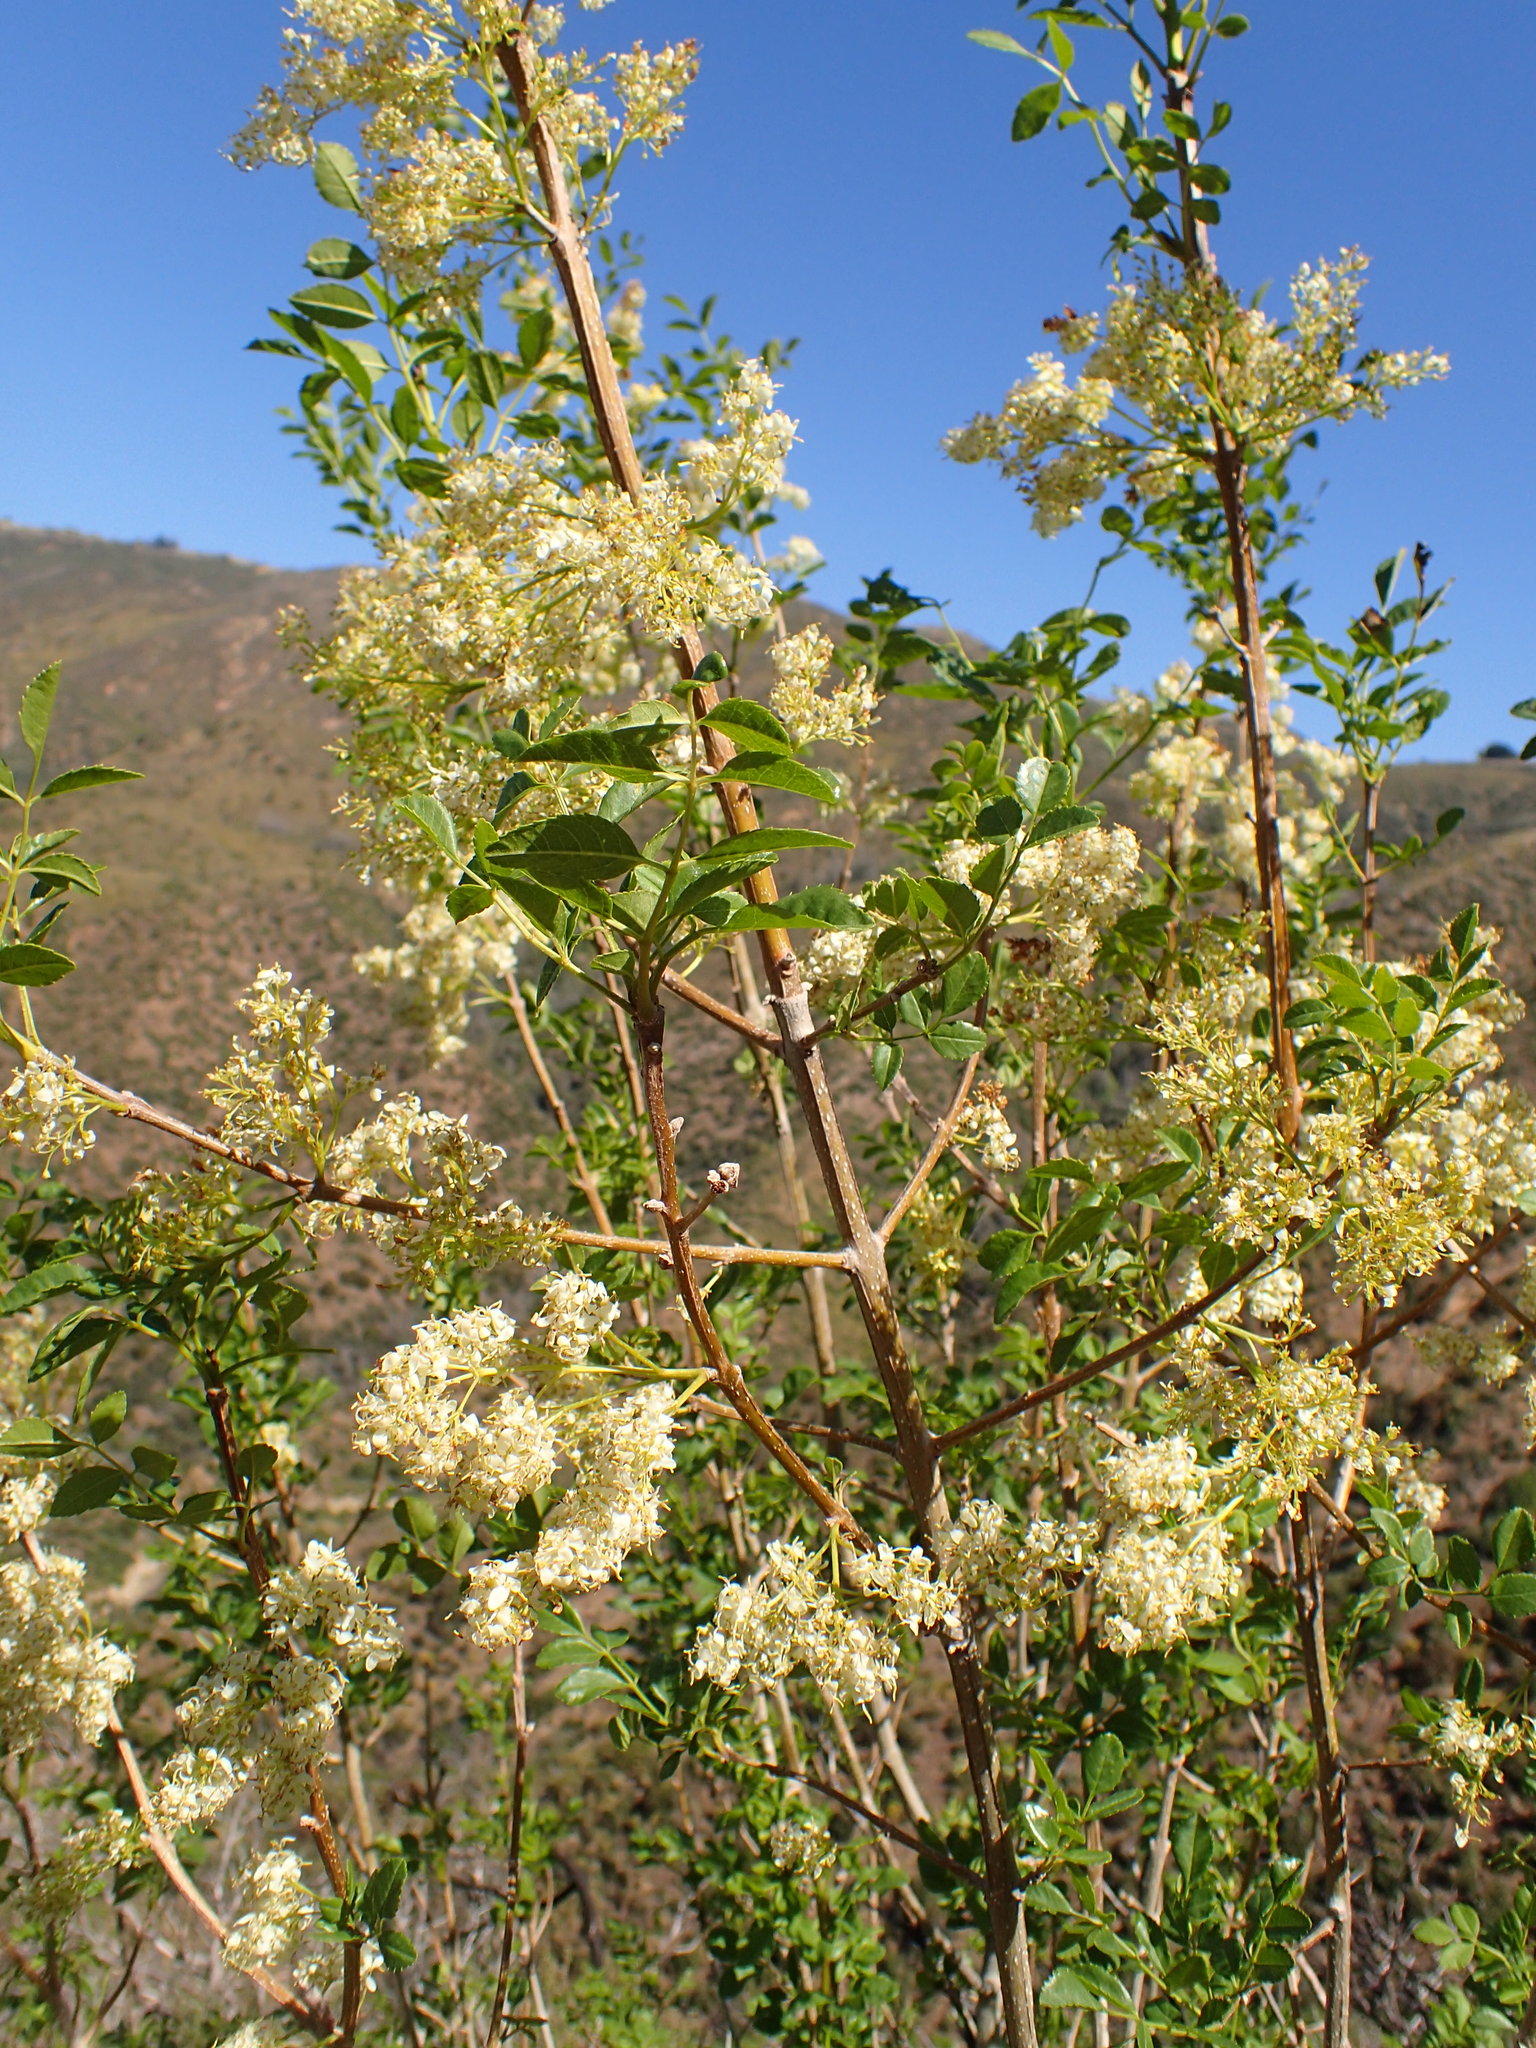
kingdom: Plantae
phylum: Tracheophyta
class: Magnoliopsida
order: Lamiales
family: Oleaceae
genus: Fraxinus
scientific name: Fraxinus dipetala
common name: California ash
